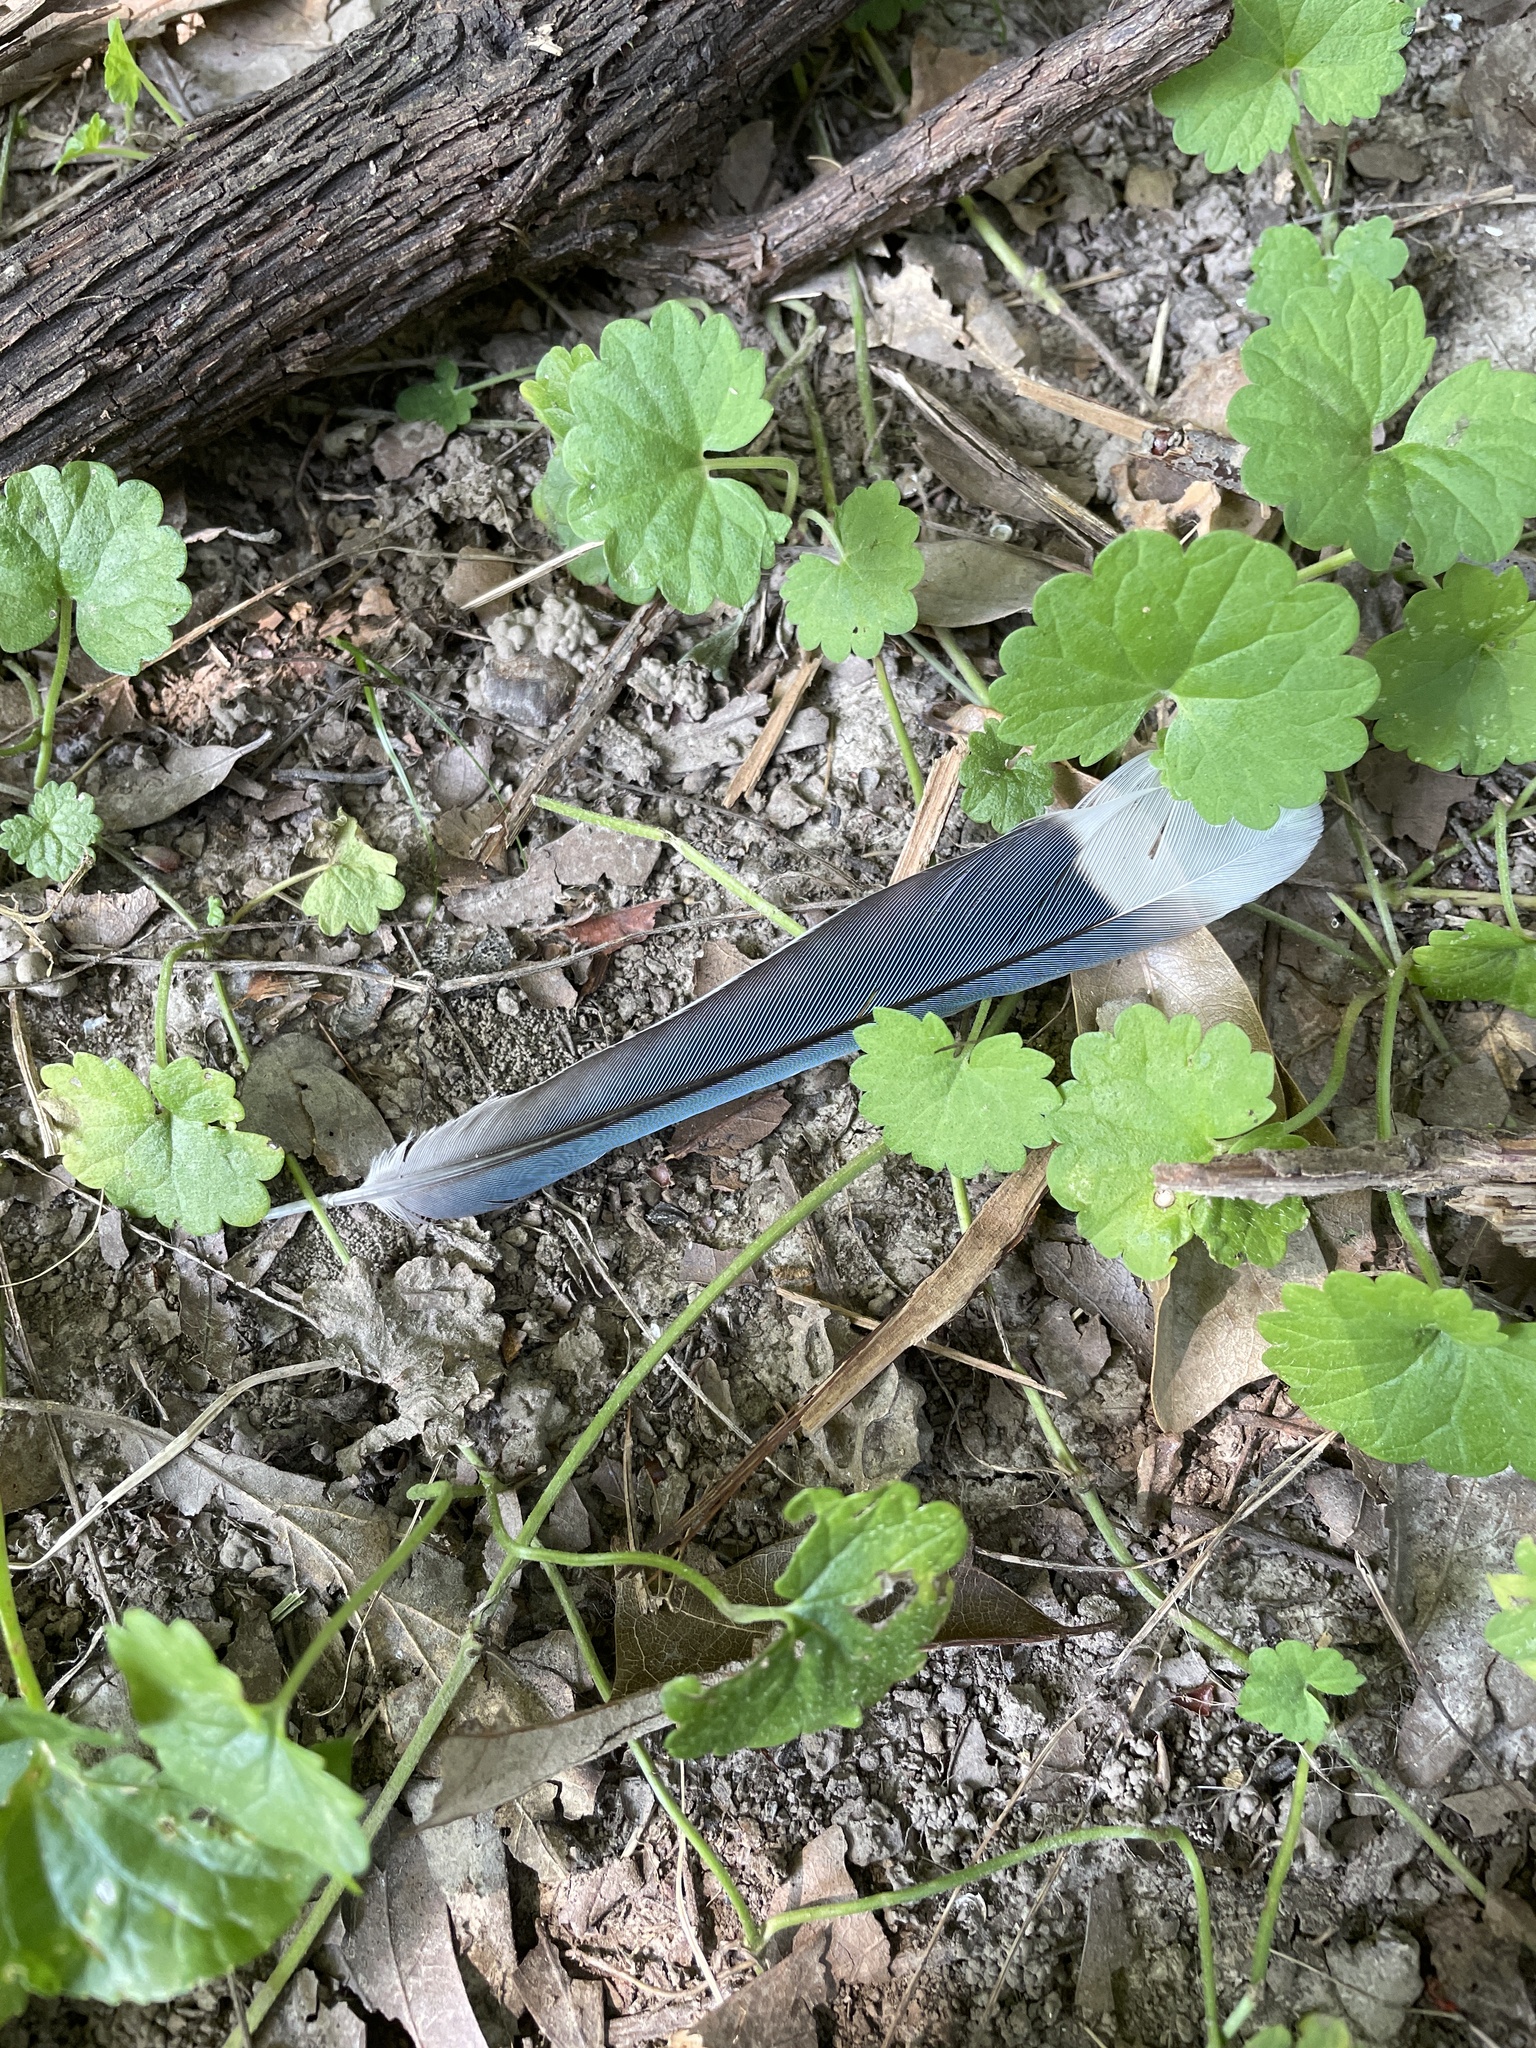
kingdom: Animalia
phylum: Chordata
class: Aves
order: Passeriformes
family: Corvidae
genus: Cyanocitta
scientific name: Cyanocitta cristata
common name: Blue jay
